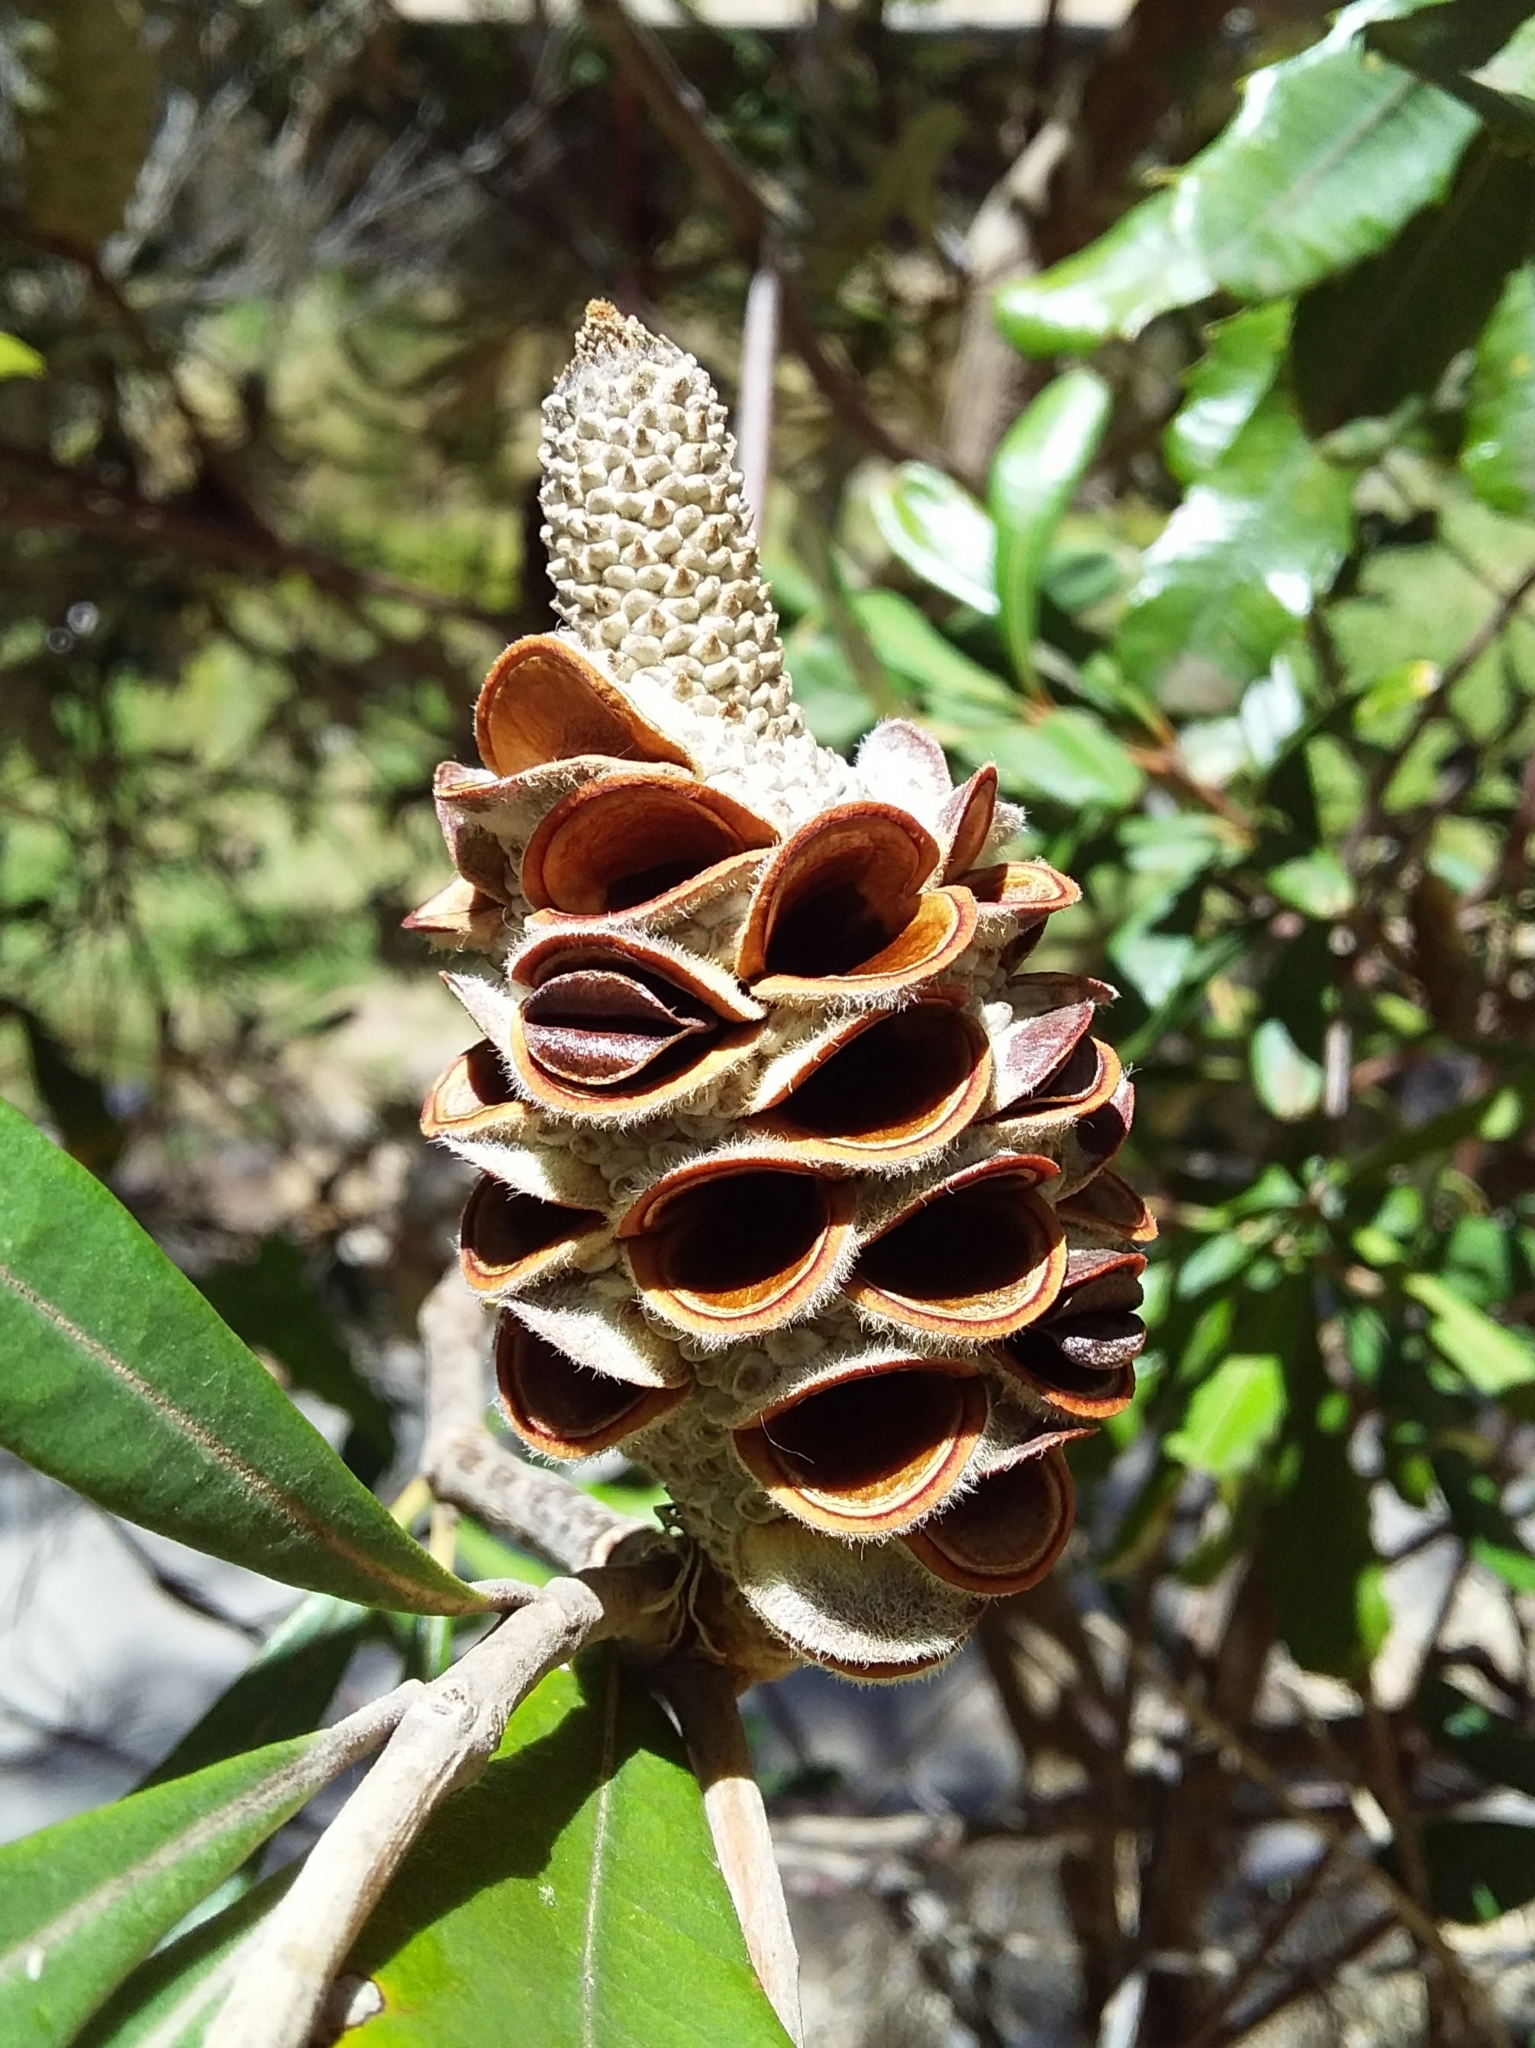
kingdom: Plantae
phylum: Tracheophyta
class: Magnoliopsida
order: Proteales
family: Proteaceae
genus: Banksia
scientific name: Banksia integrifolia
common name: White-honeysuckle
